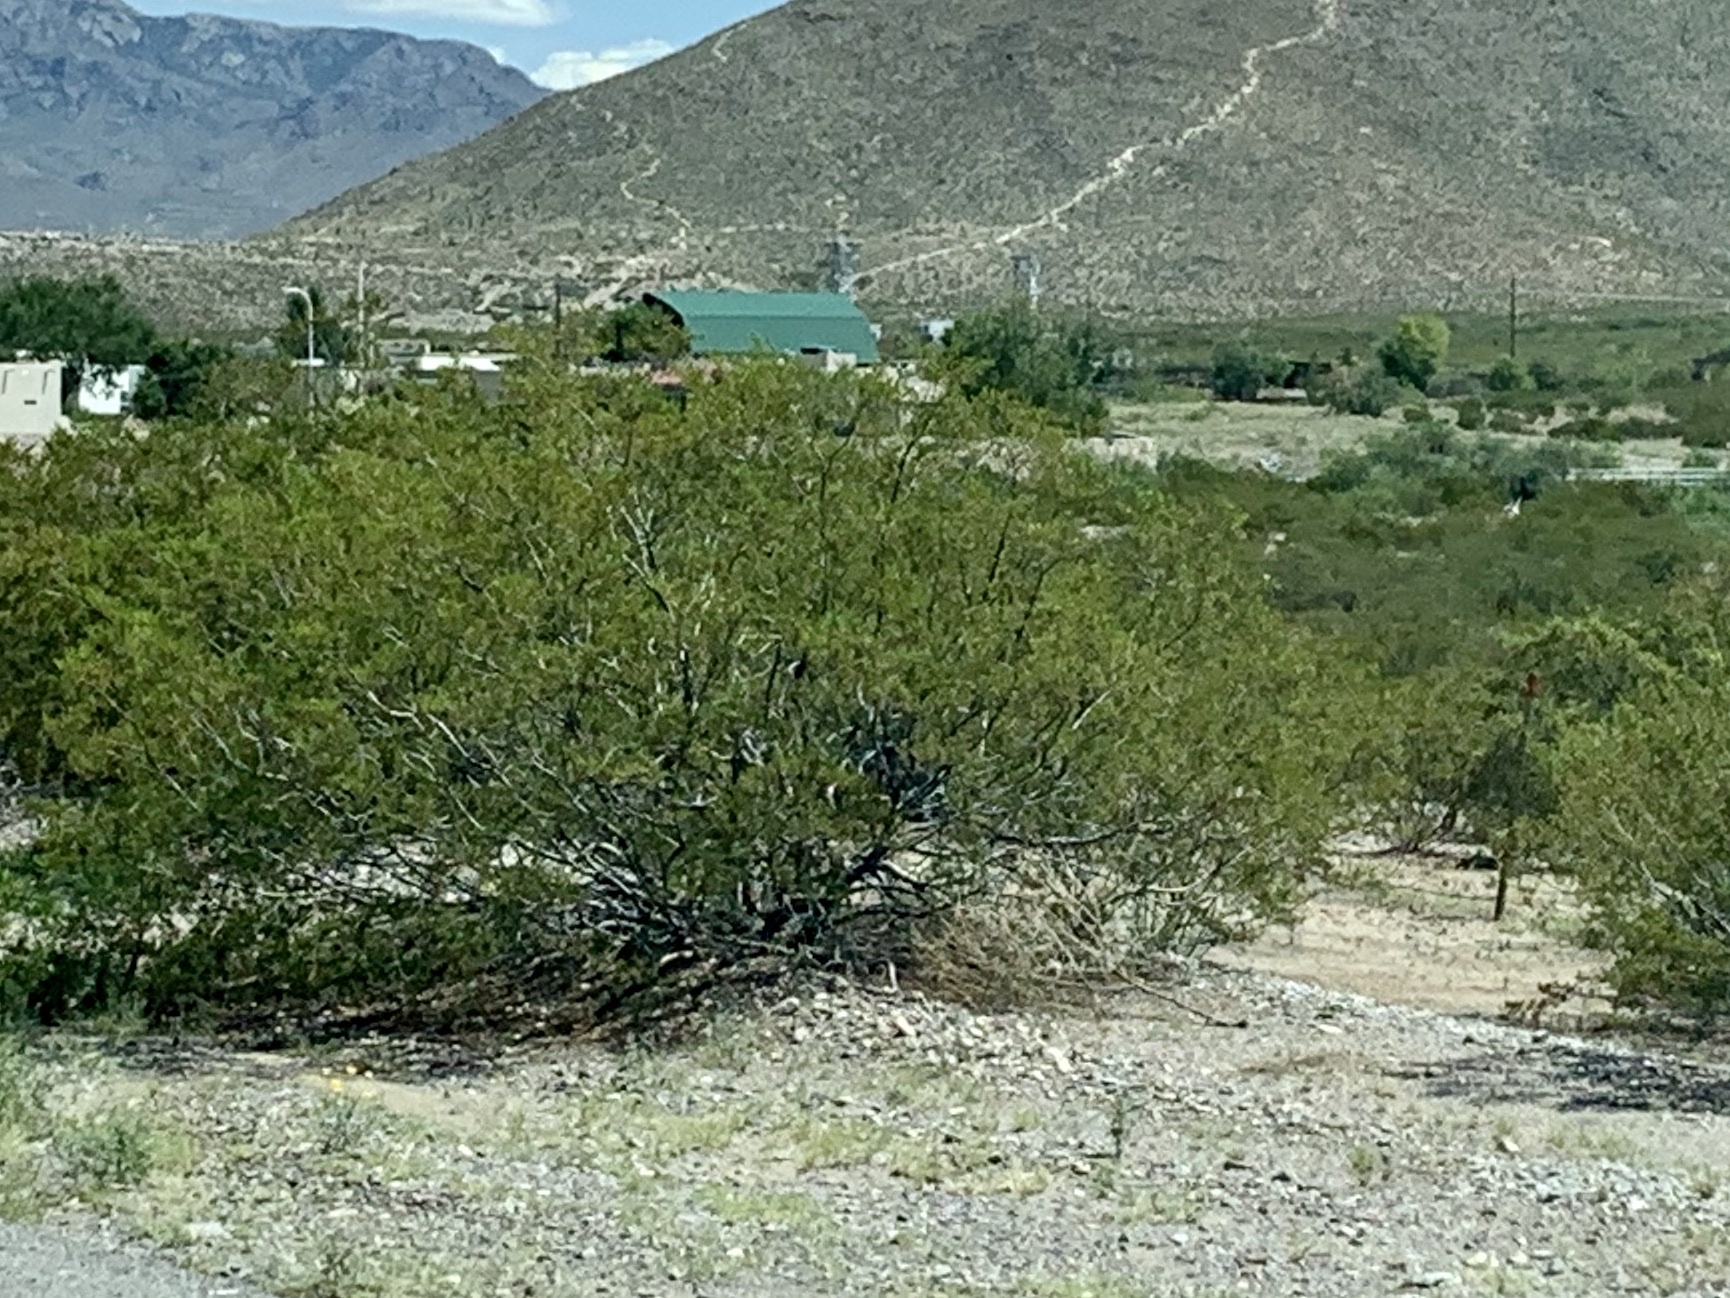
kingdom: Plantae
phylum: Tracheophyta
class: Magnoliopsida
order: Zygophyllales
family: Zygophyllaceae
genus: Larrea
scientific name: Larrea tridentata
